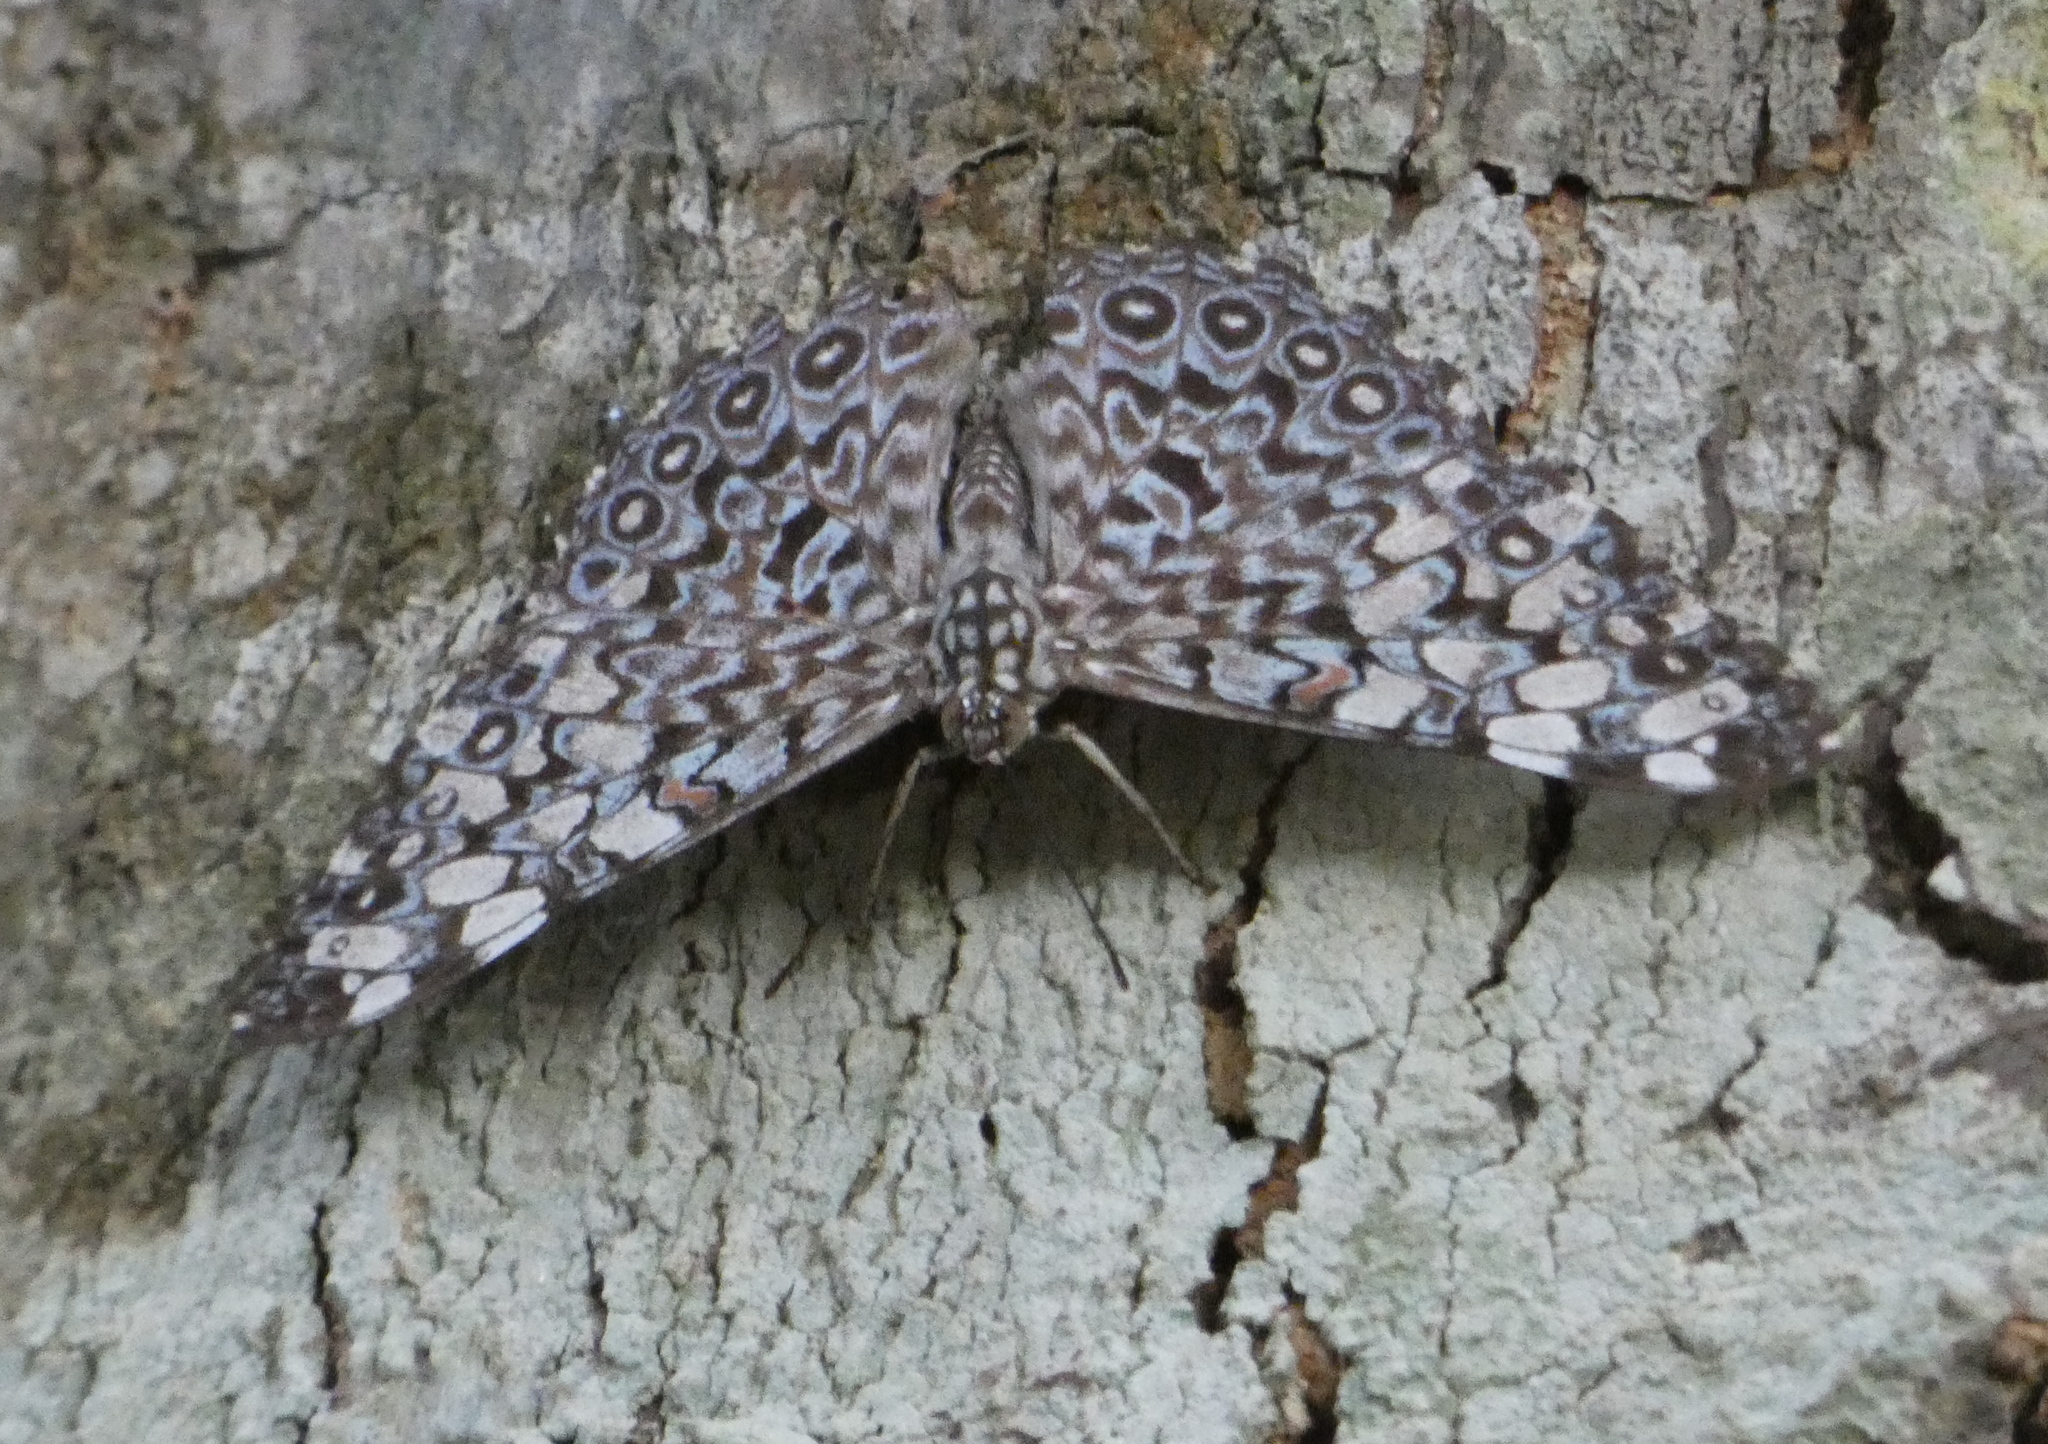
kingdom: Animalia
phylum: Arthropoda
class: Insecta
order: Lepidoptera
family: Nymphalidae
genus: Hamadryas
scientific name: Hamadryas feronia
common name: Variable cracker
